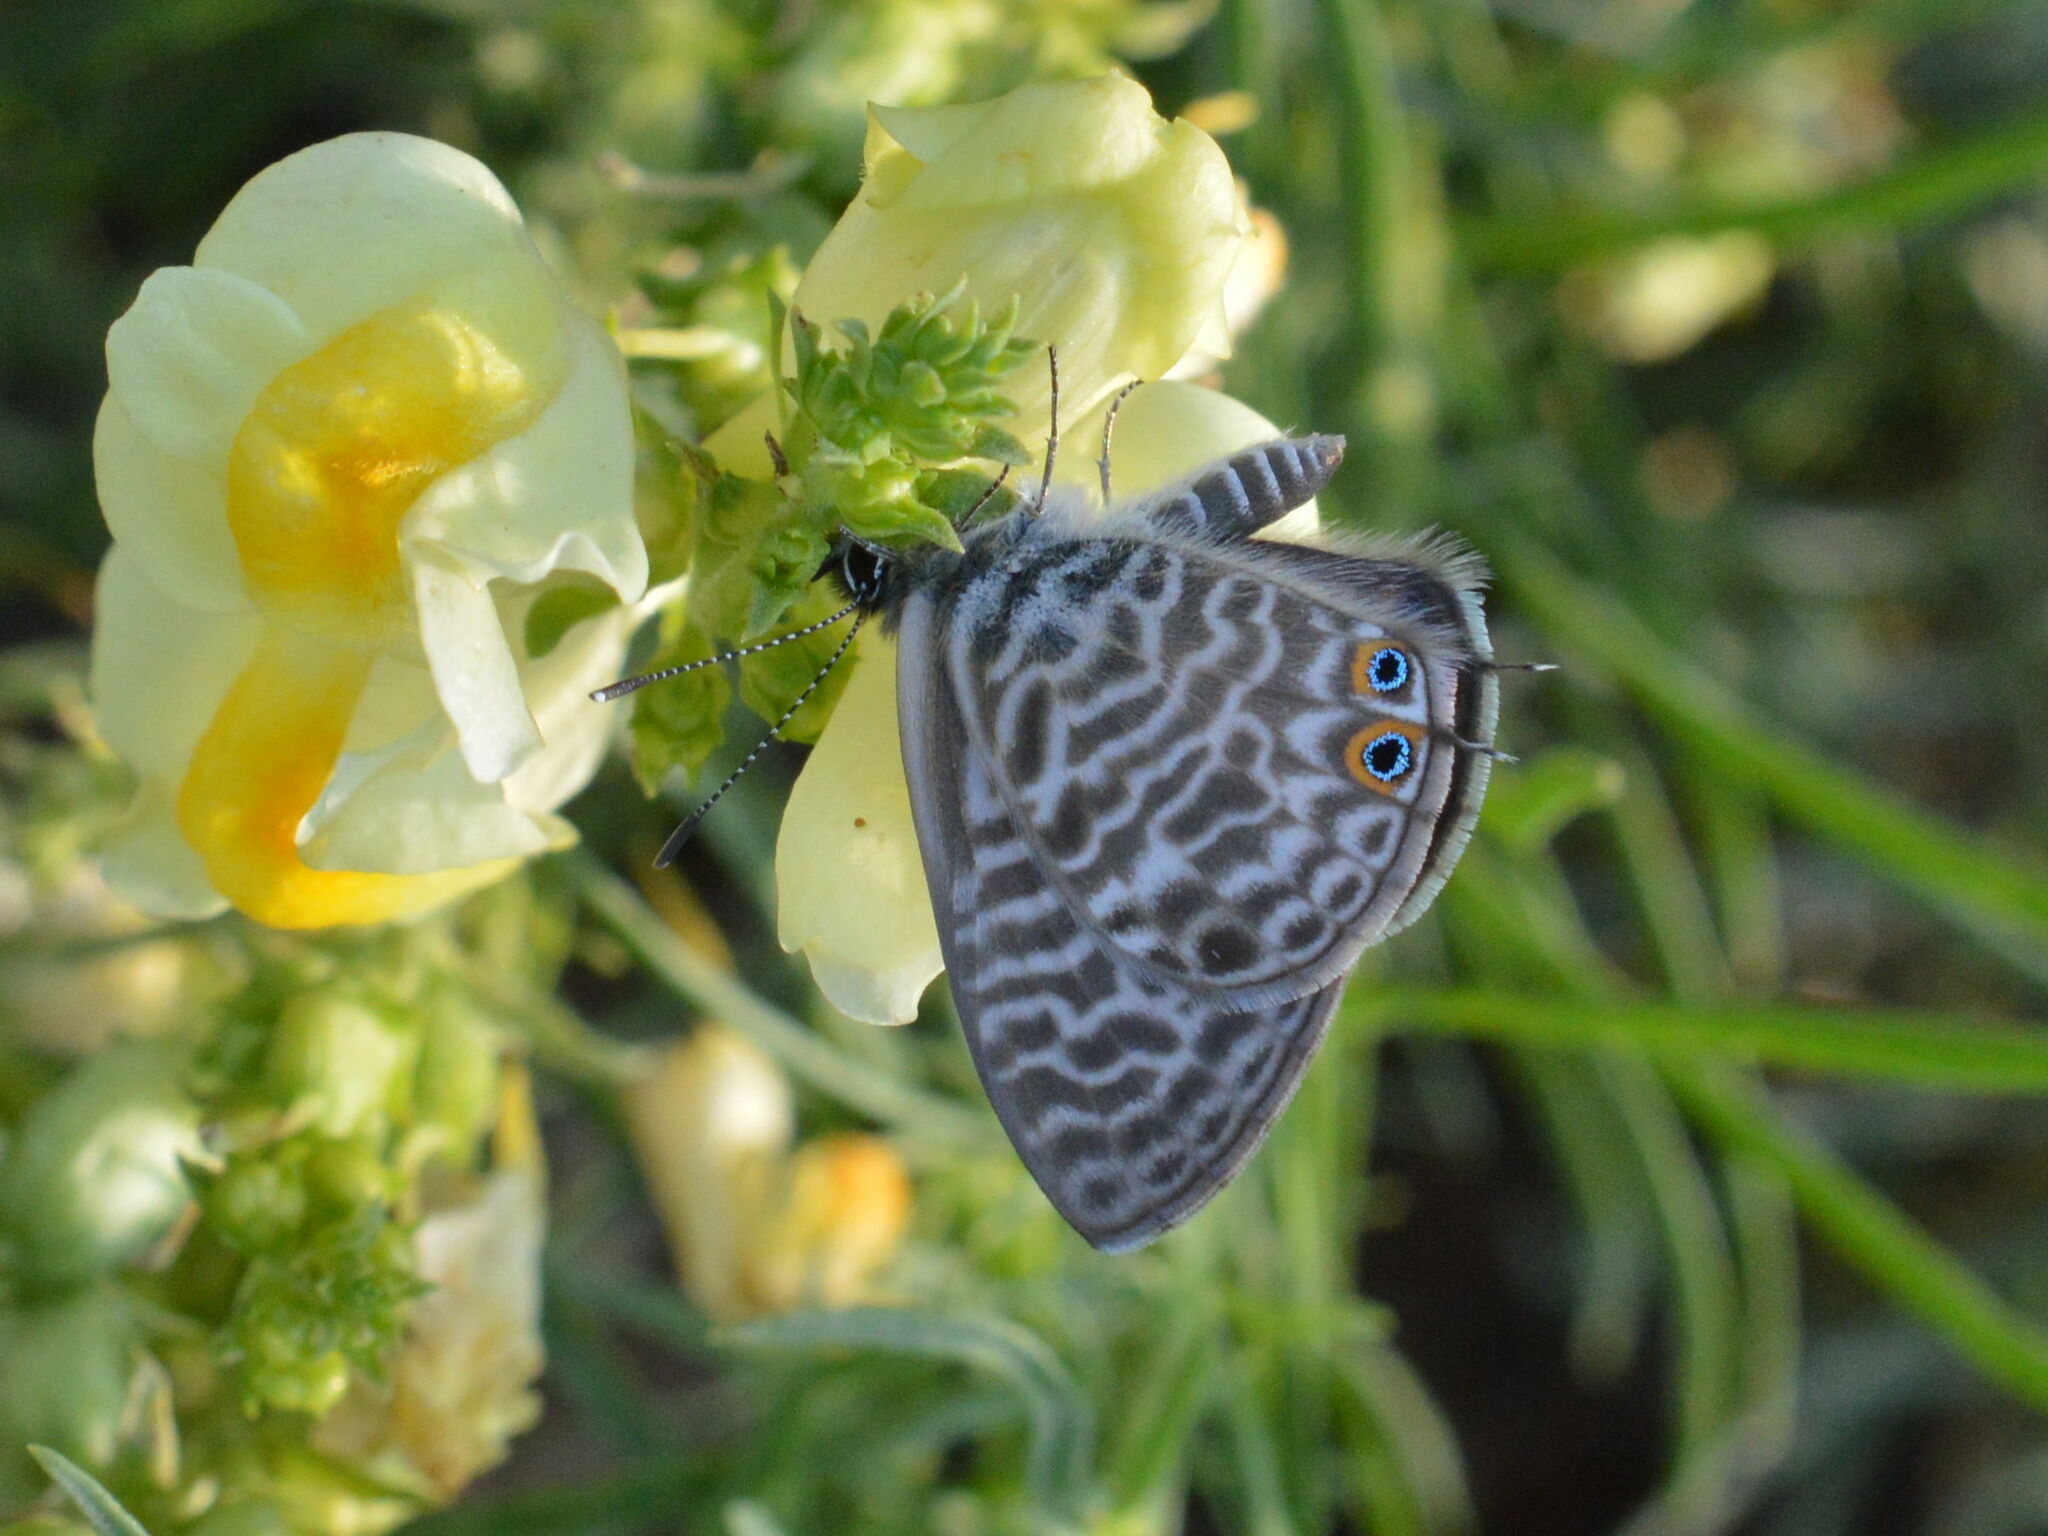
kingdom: Animalia
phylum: Arthropoda
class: Insecta
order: Lepidoptera
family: Lycaenidae
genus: Leptotes
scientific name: Leptotes pirithous
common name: Lang's short-tailed blue
